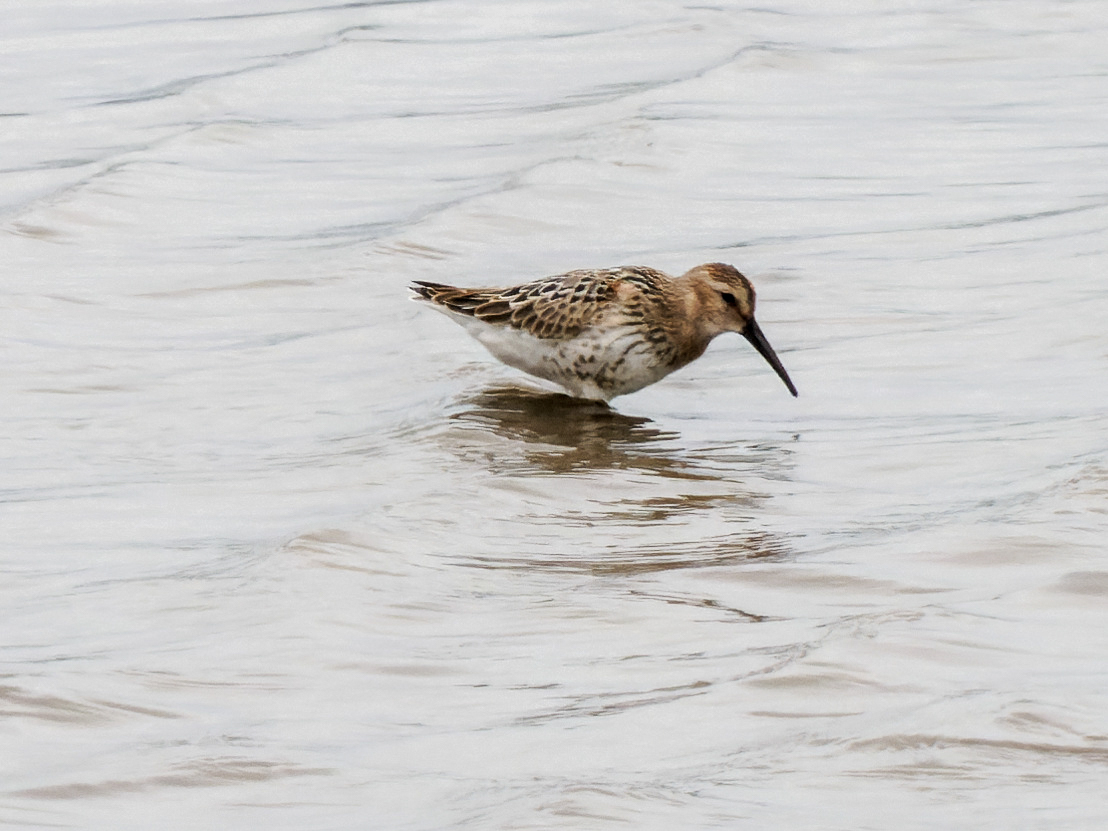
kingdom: Animalia
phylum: Chordata
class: Aves
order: Charadriiformes
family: Scolopacidae
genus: Calidris
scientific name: Calidris alpina
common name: Dunlin
